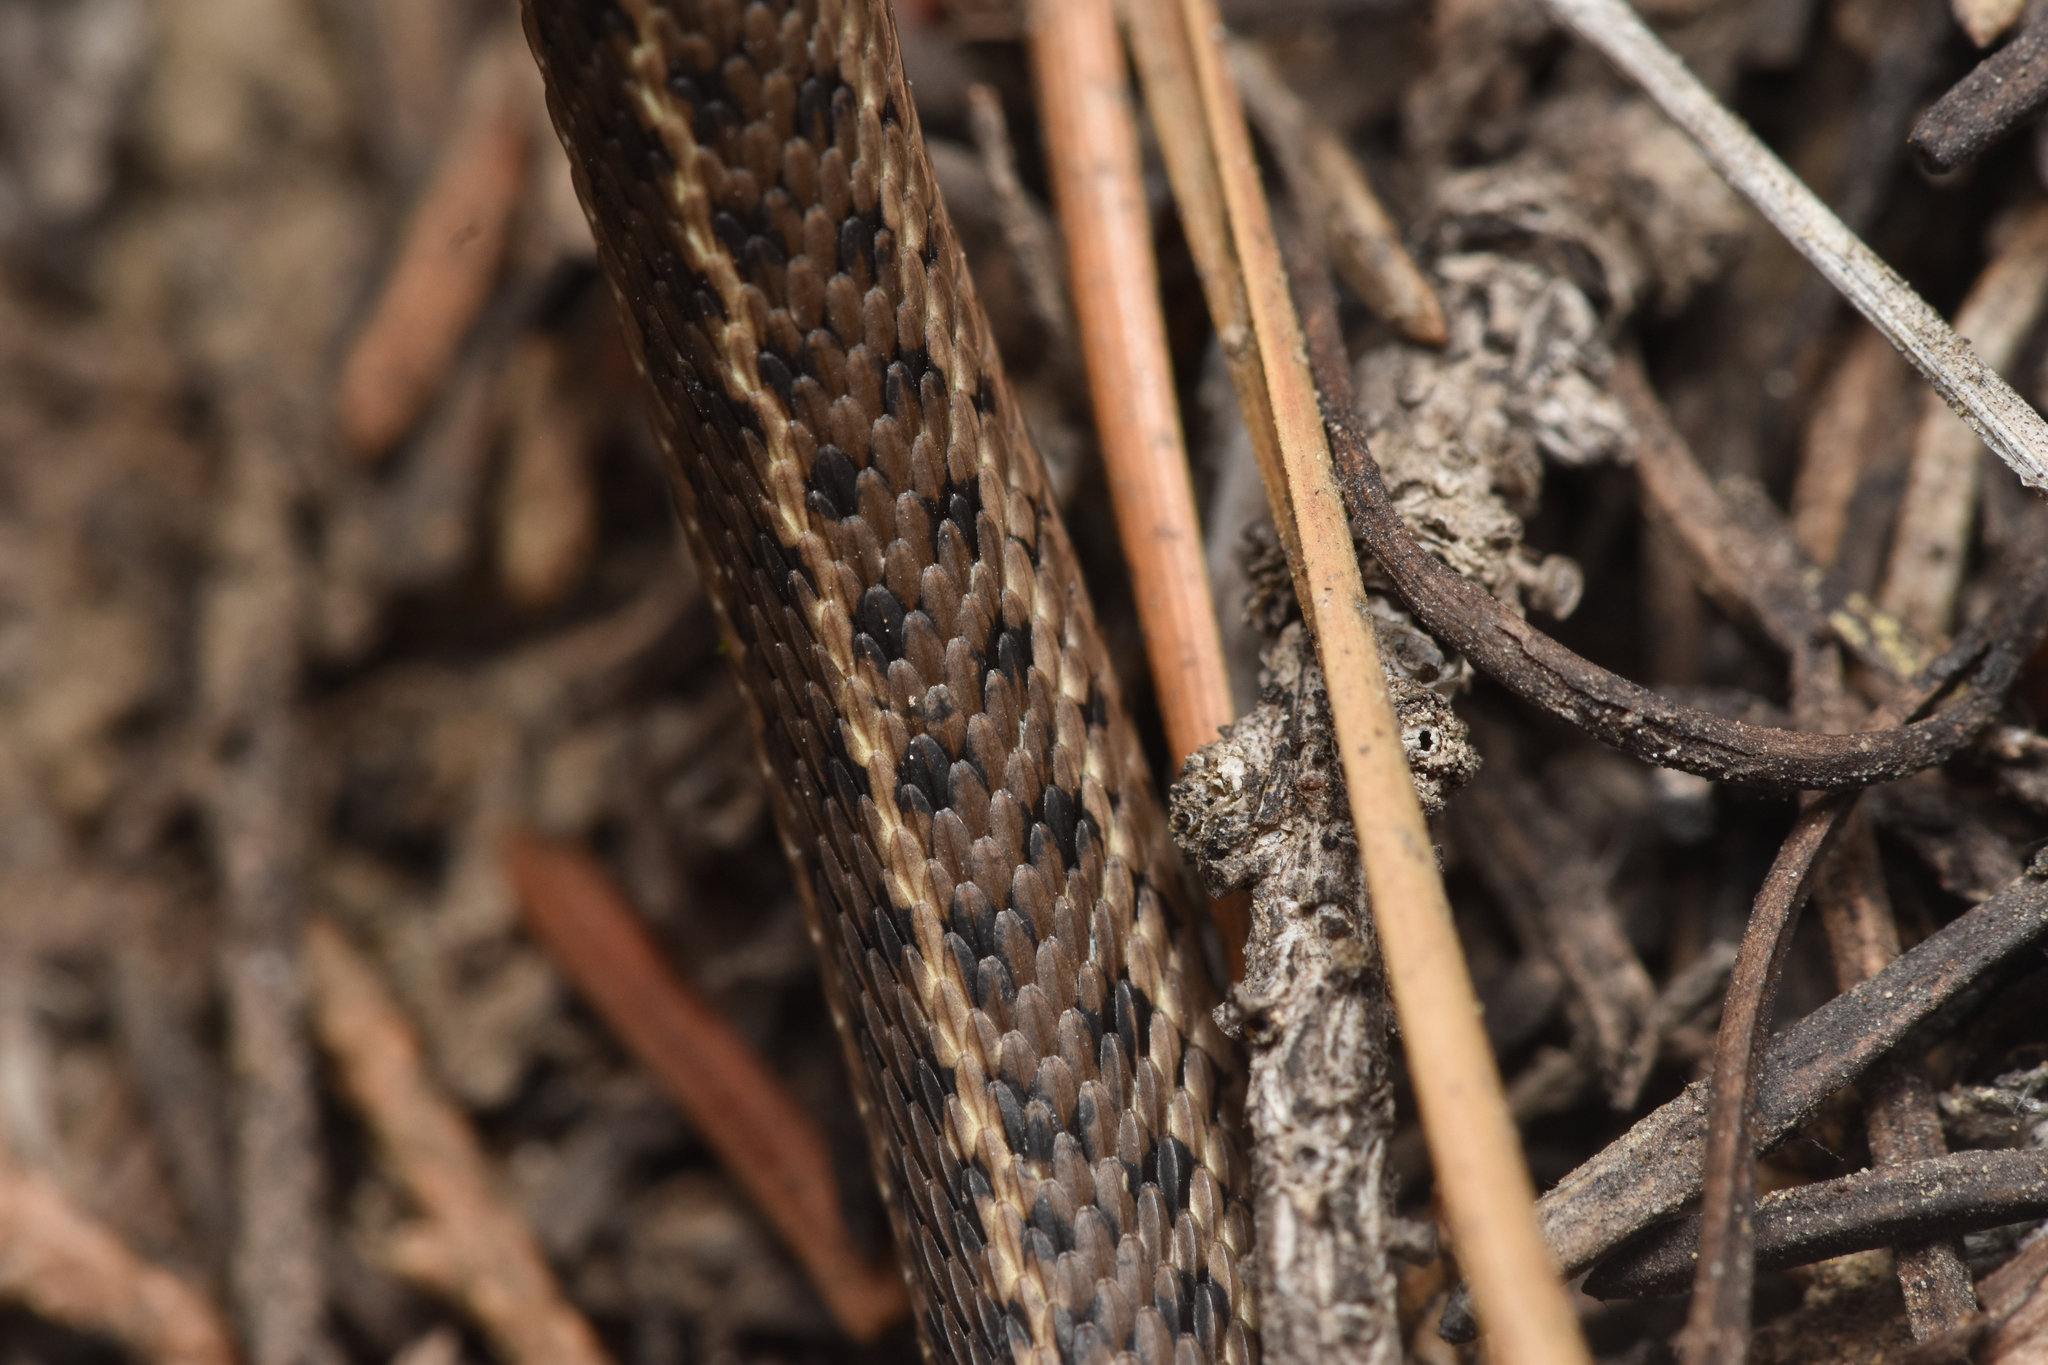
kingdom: Animalia
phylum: Chordata
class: Squamata
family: Colubridae
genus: Thamnophis
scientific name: Thamnophis elegans
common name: Western terrestrial garter snake
